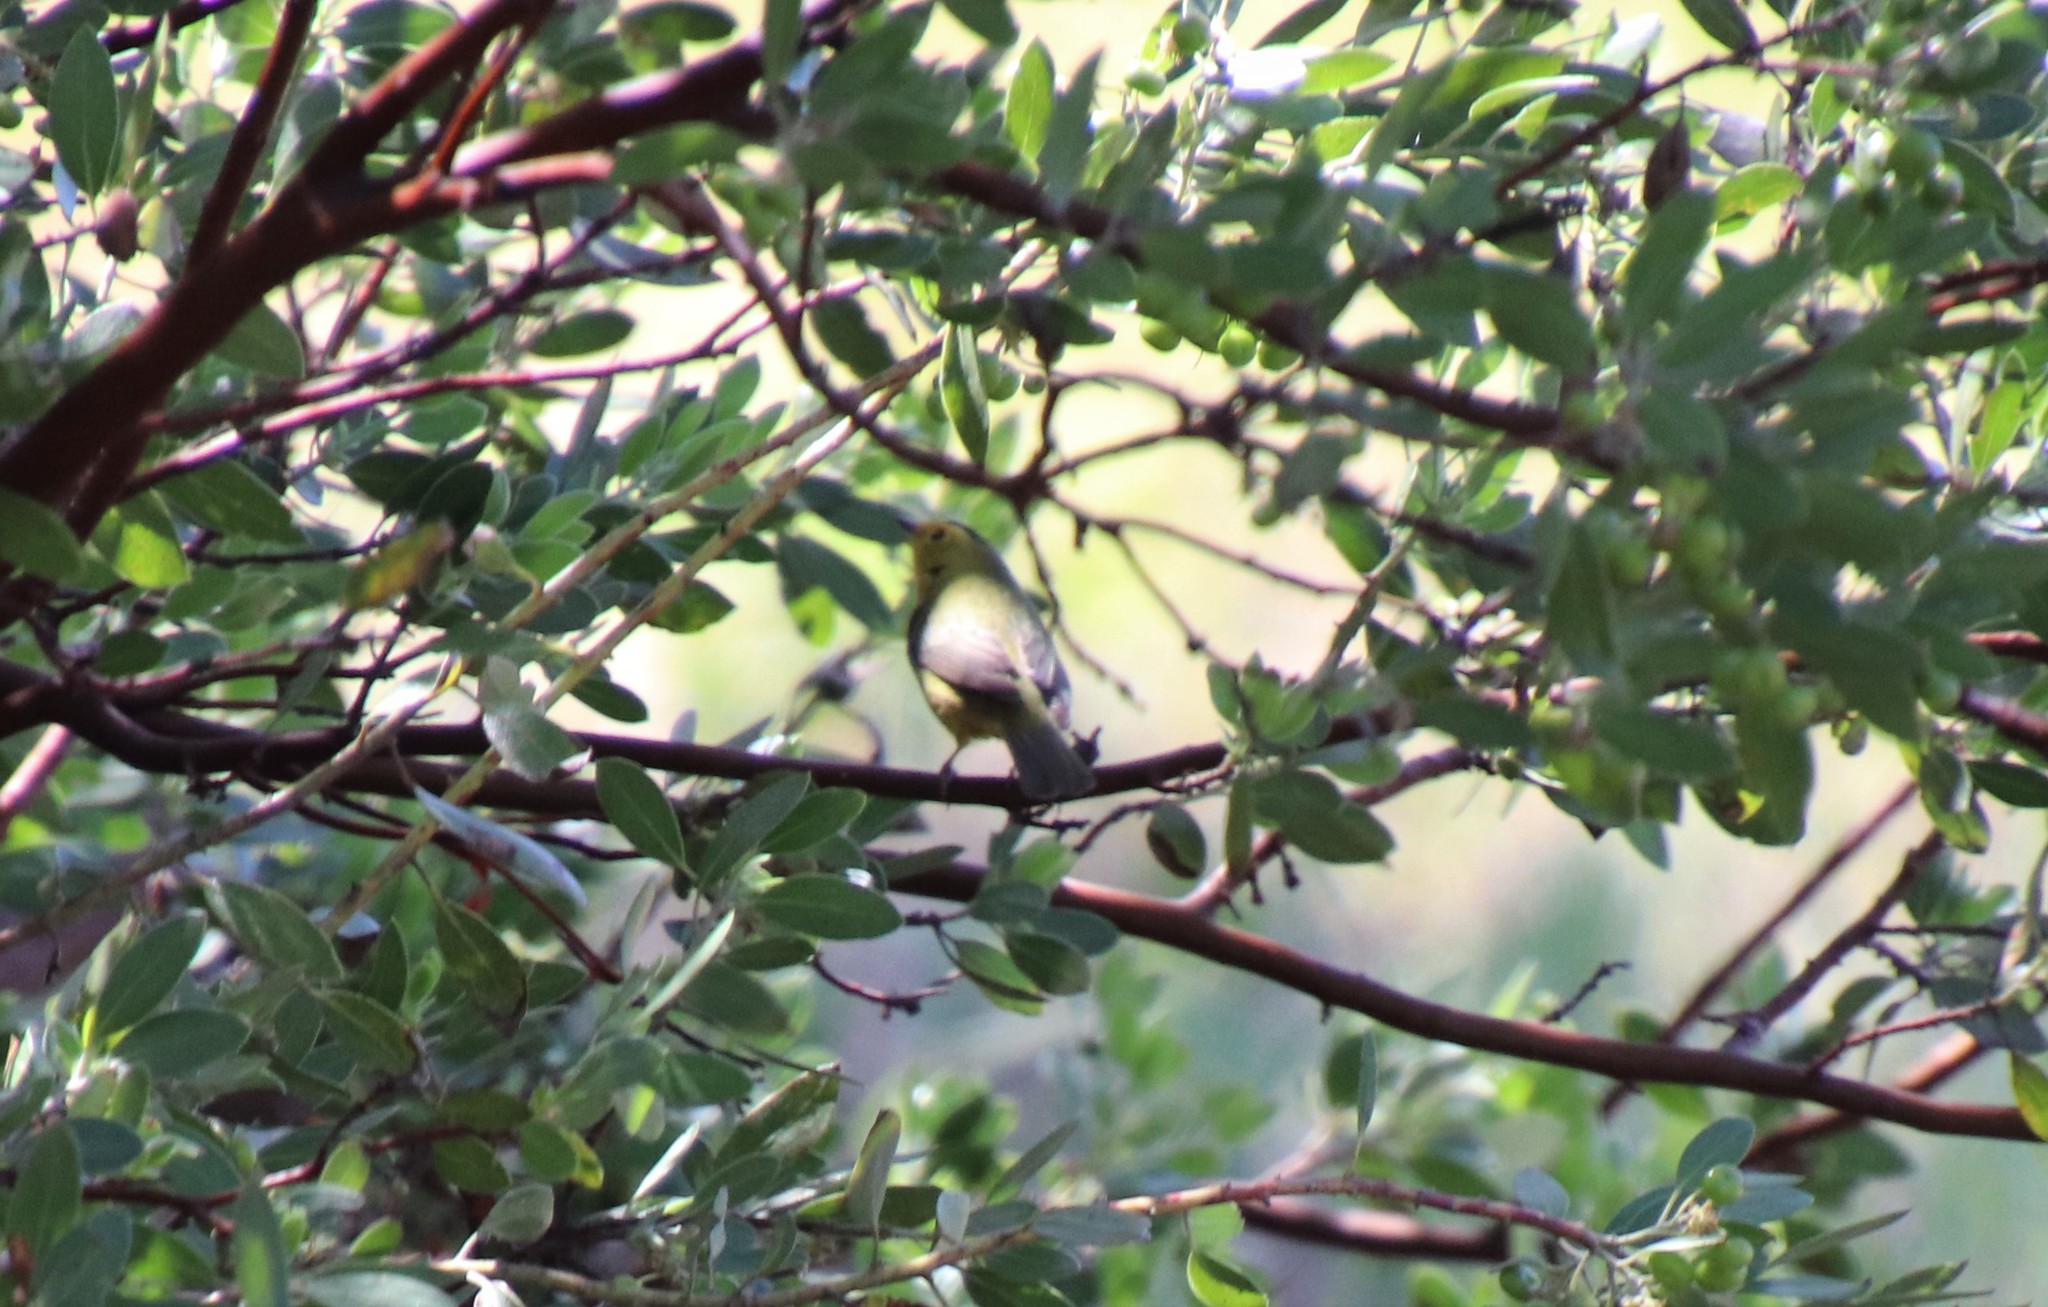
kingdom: Animalia
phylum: Chordata
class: Aves
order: Passeriformes
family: Parulidae
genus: Cardellina
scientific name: Cardellina pusilla
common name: Wilson's warbler
